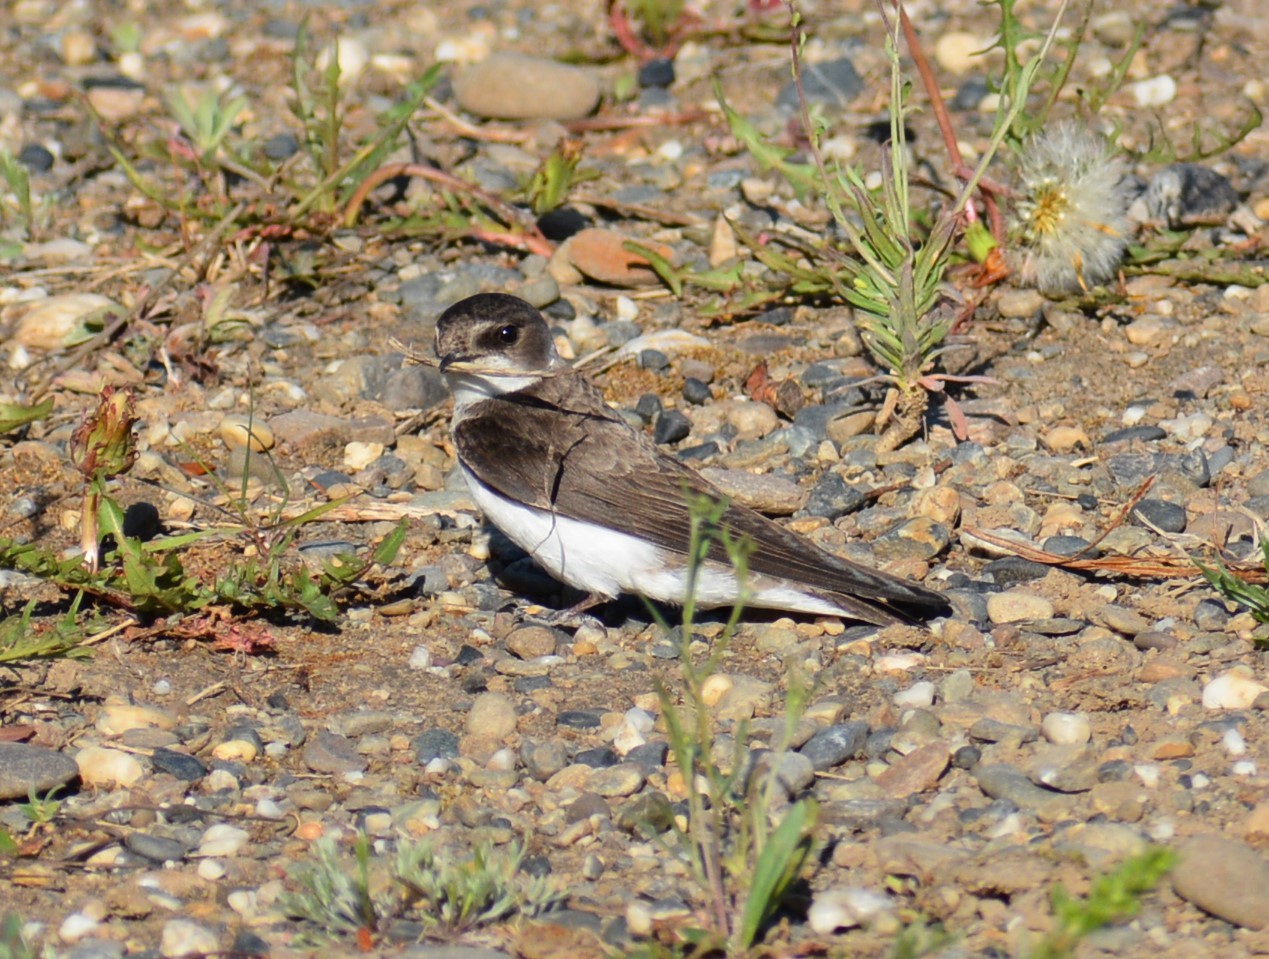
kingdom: Animalia
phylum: Chordata
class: Aves
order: Passeriformes
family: Hirundinidae
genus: Riparia
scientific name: Riparia riparia
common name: Sand martin
